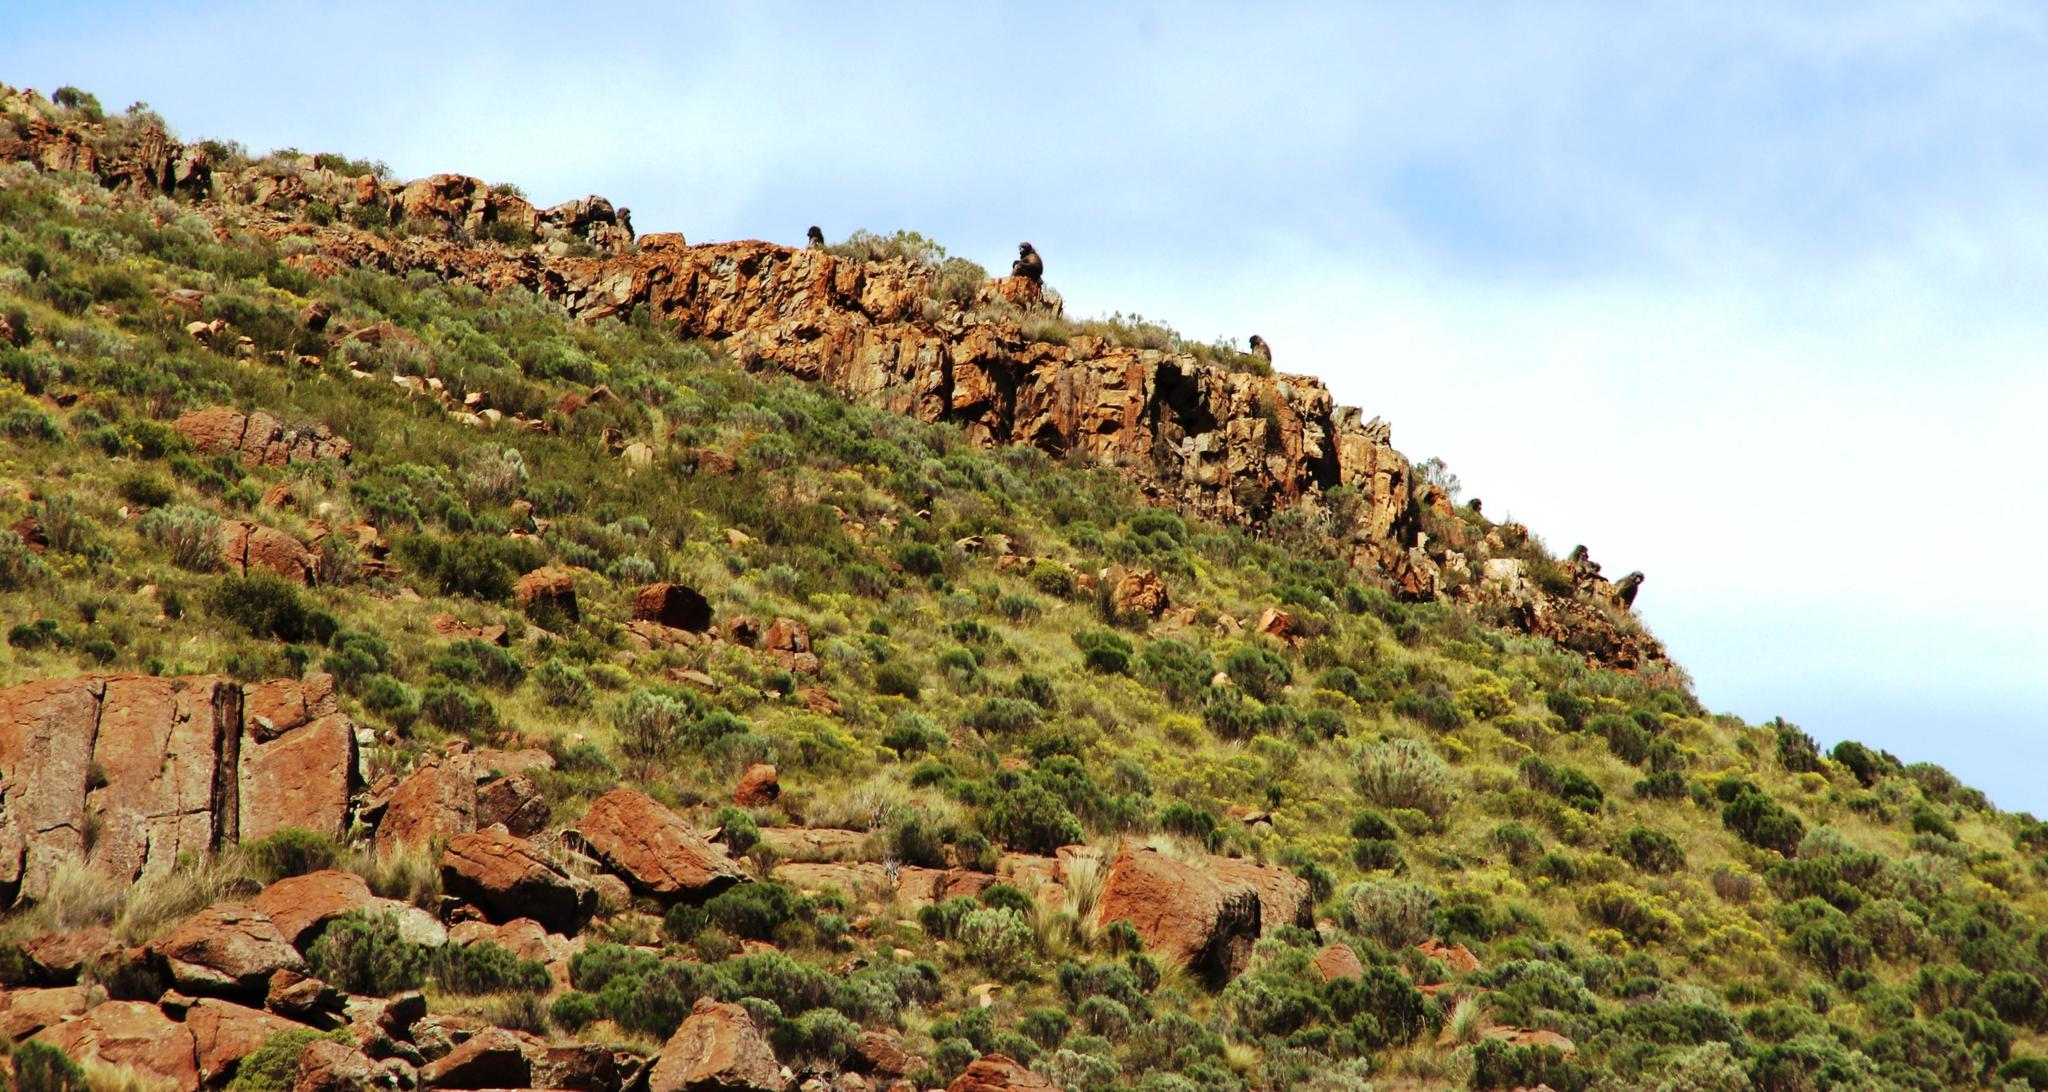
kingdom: Animalia
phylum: Chordata
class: Mammalia
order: Primates
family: Cercopithecidae
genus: Papio
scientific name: Papio ursinus
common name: Chacma baboon
